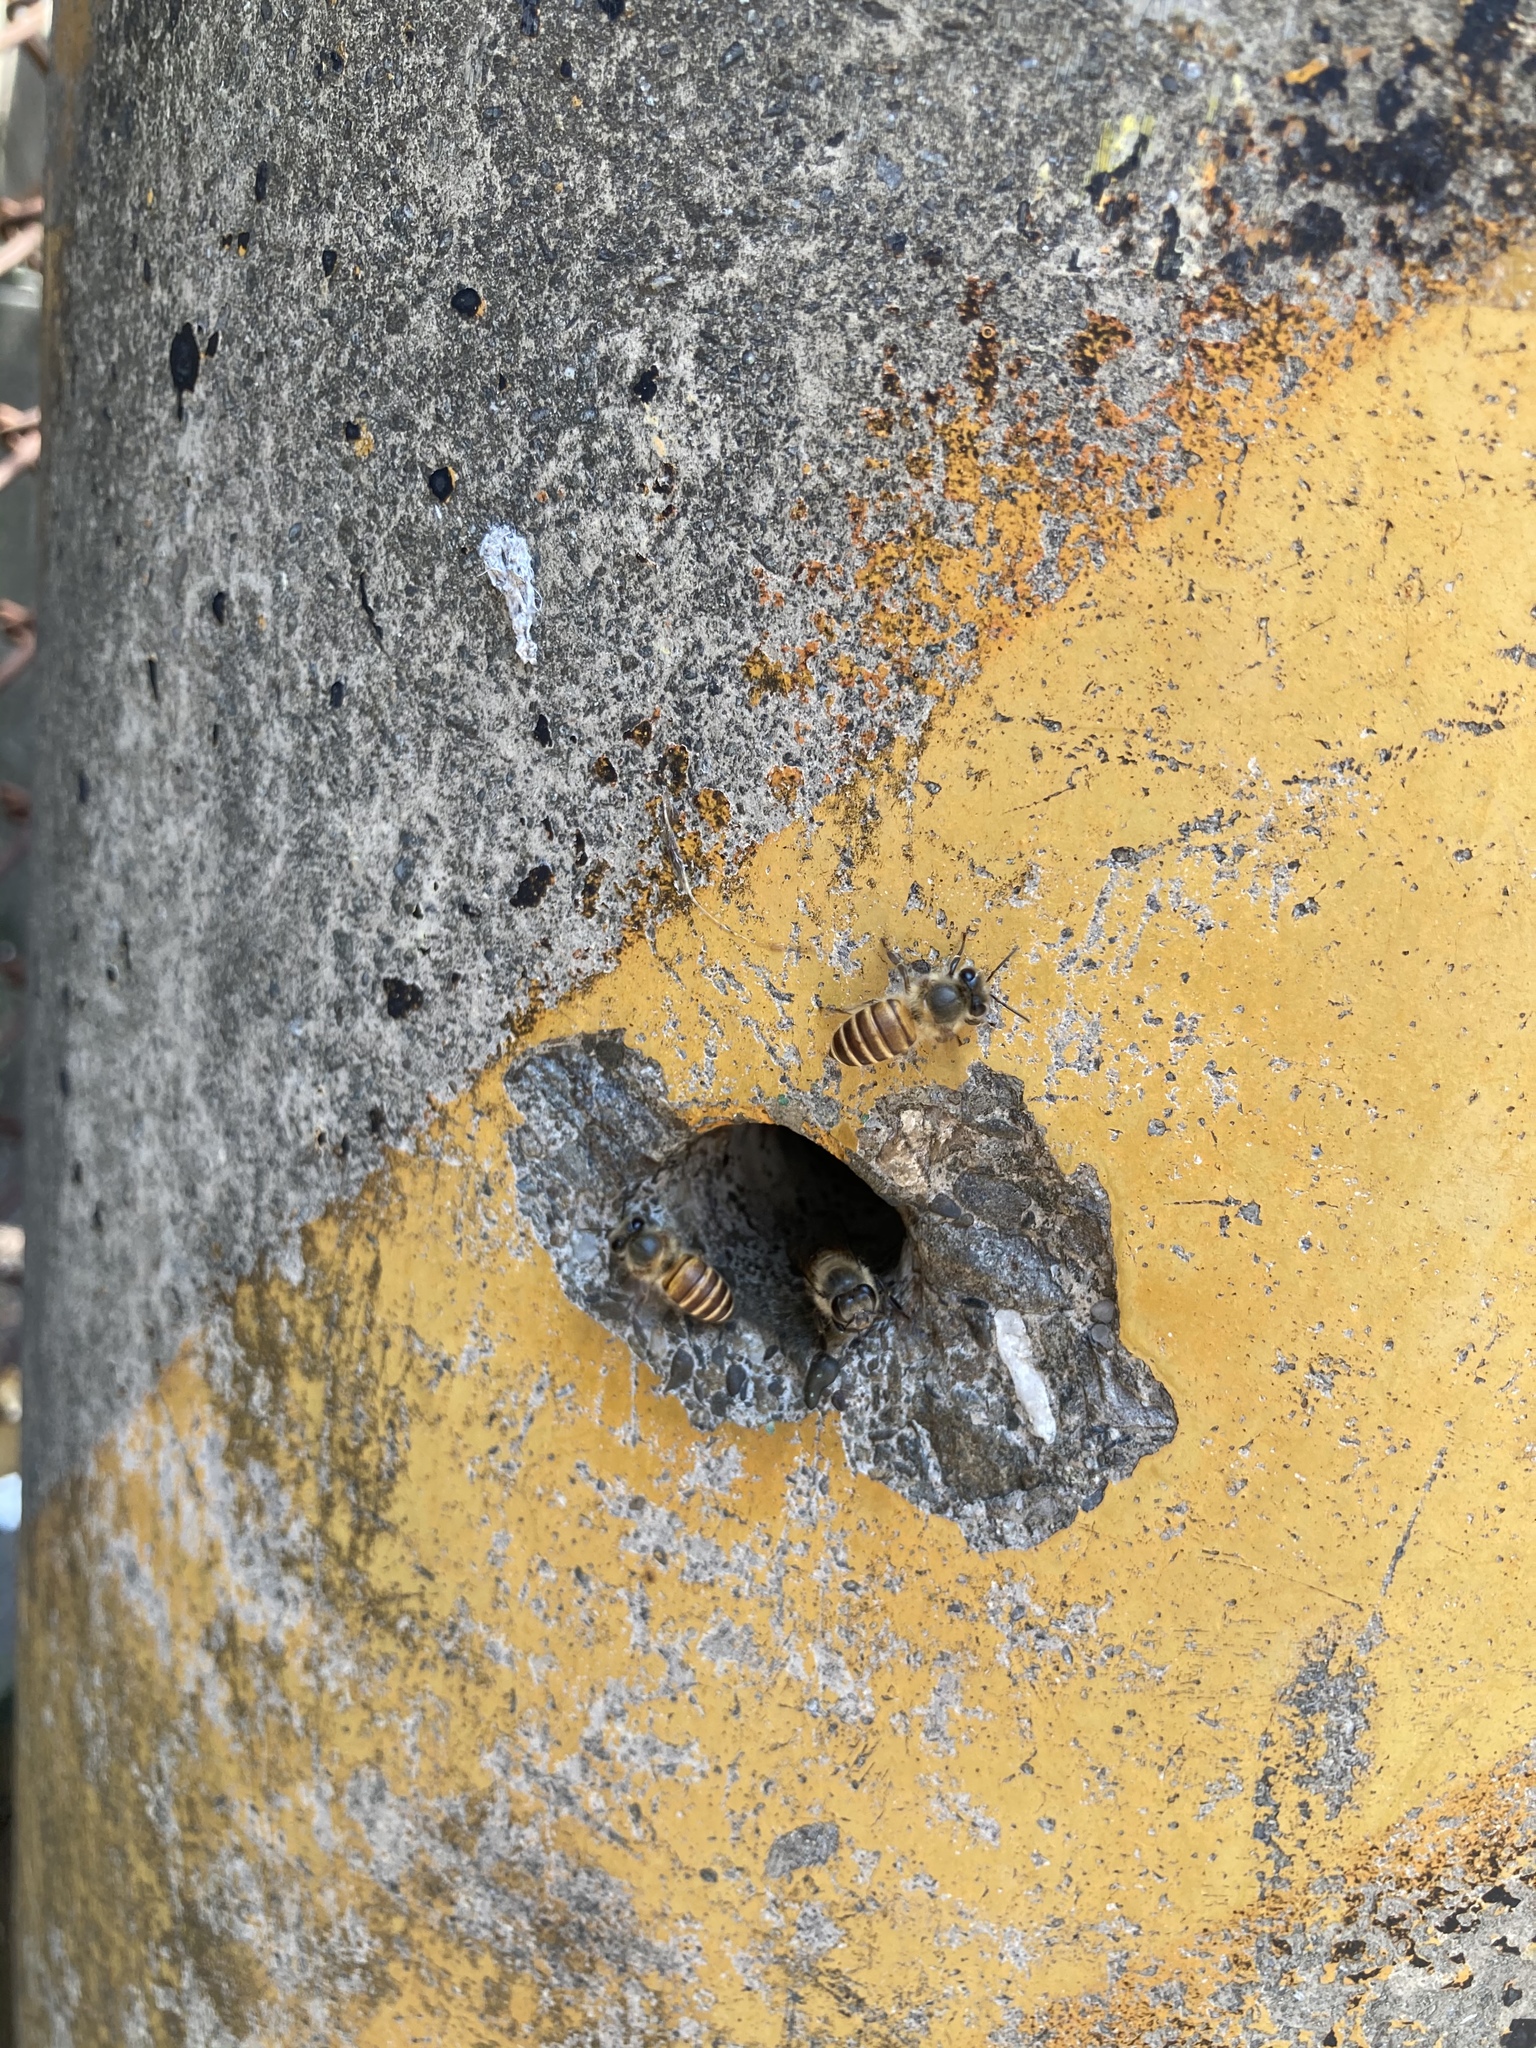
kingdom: Animalia
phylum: Arthropoda
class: Insecta
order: Hymenoptera
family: Apidae
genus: Apis
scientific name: Apis cerana
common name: Honey bee
